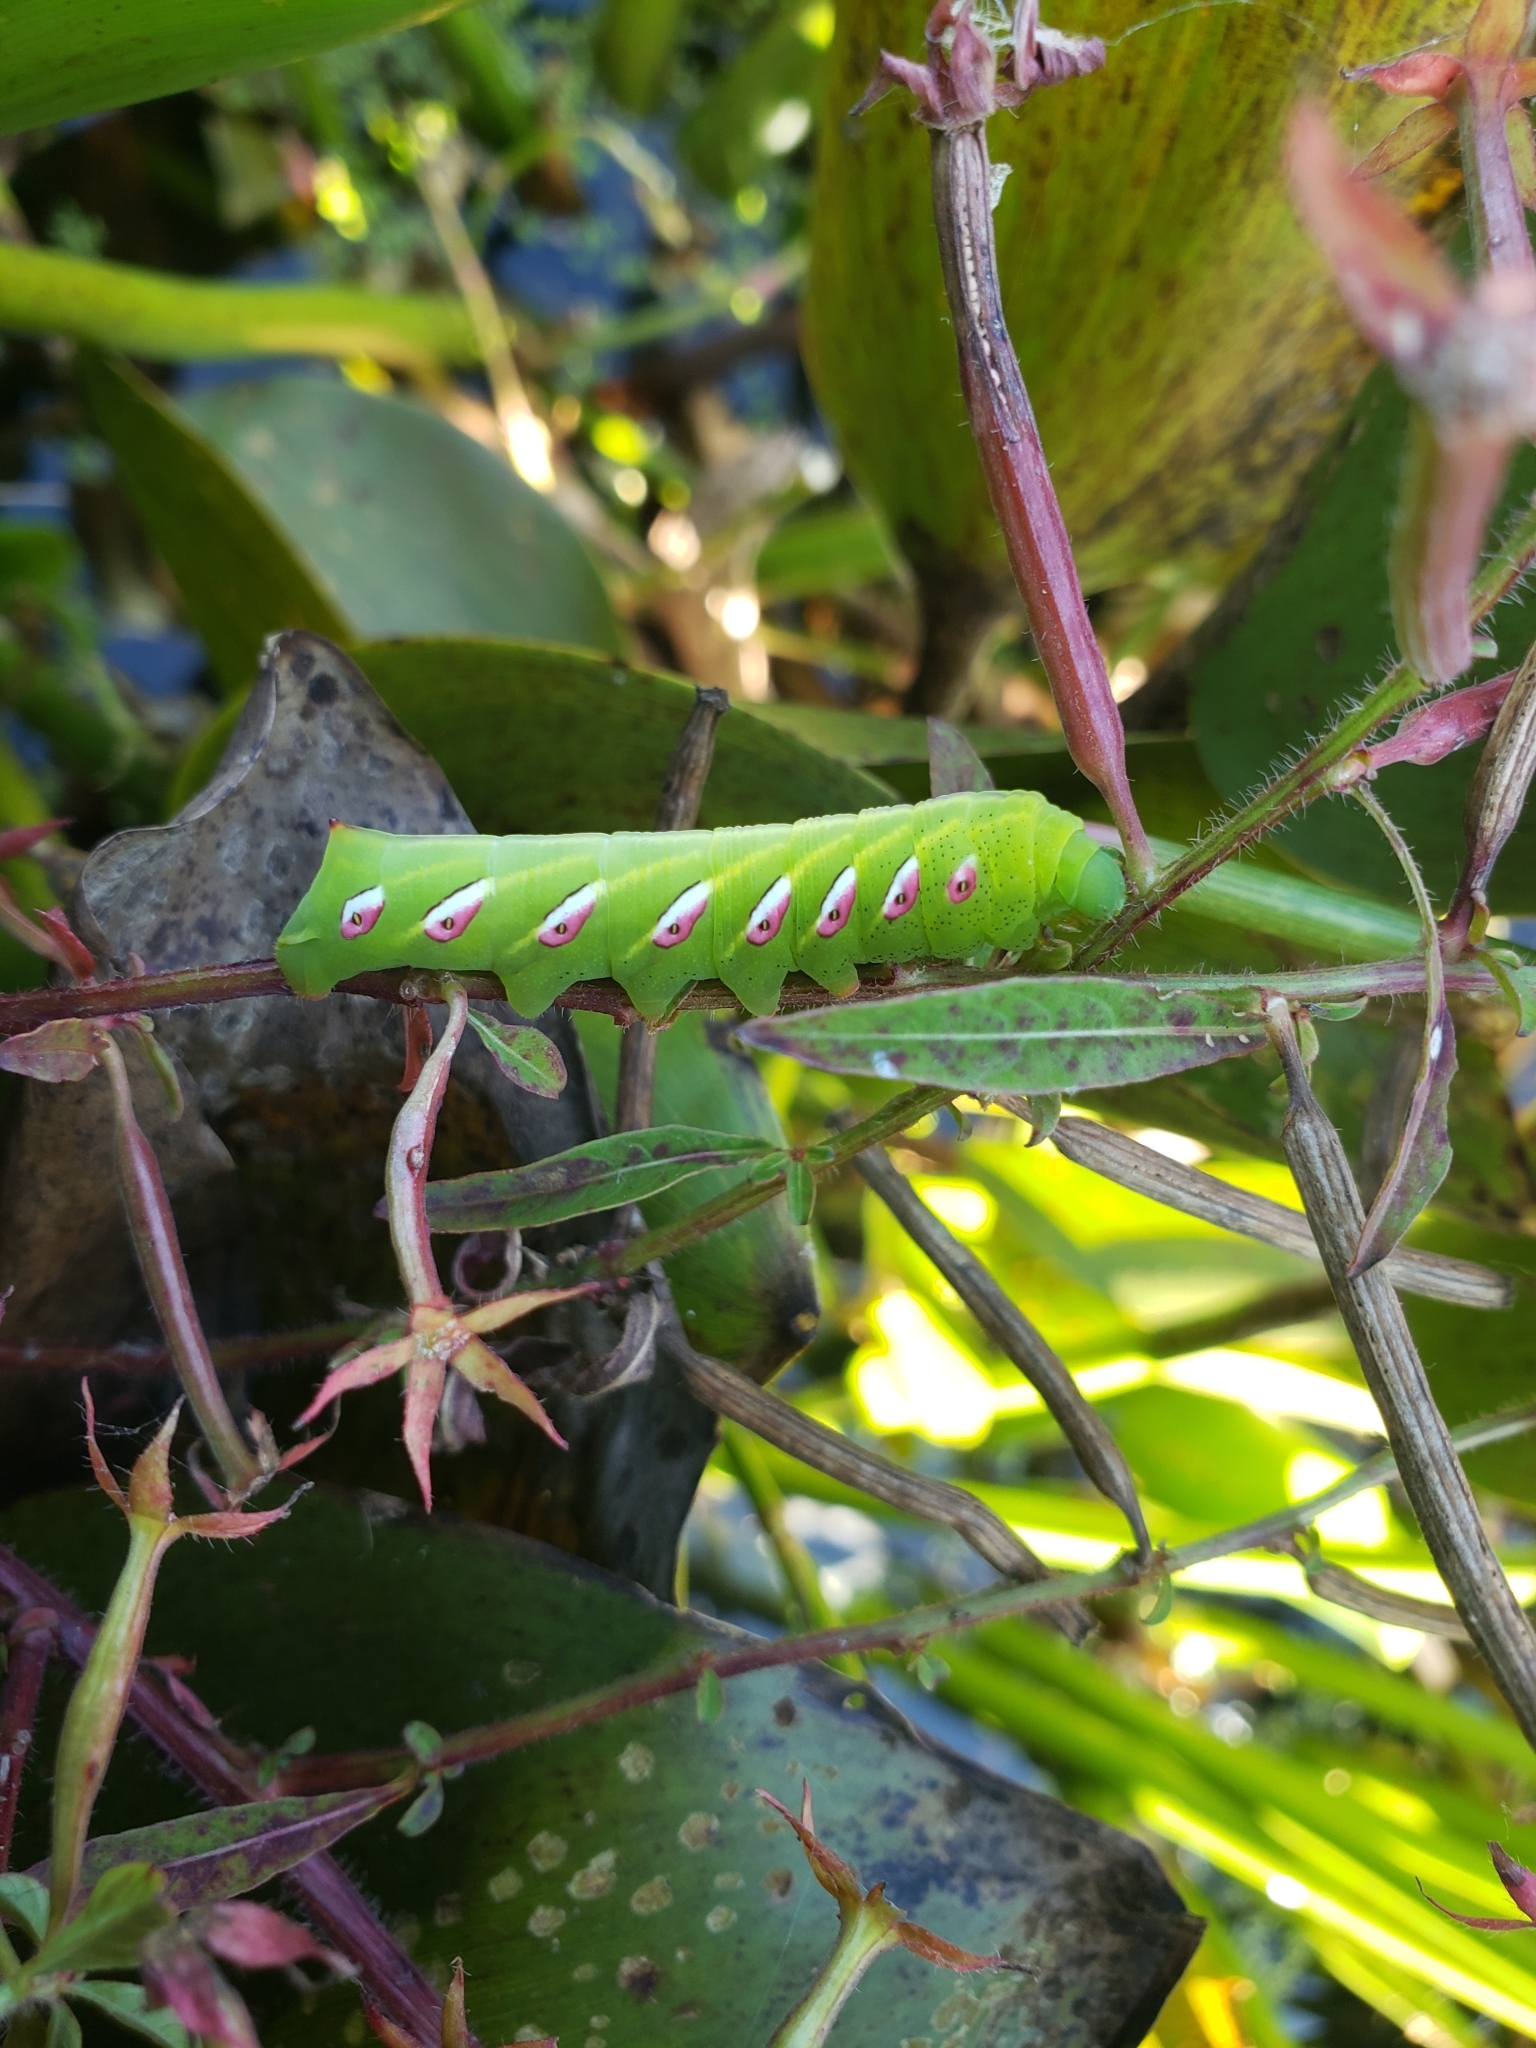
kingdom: Animalia
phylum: Arthropoda
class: Insecta
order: Lepidoptera
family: Sphingidae
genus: Eumorpha
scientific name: Eumorpha fasciatus
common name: Banded sphinx
